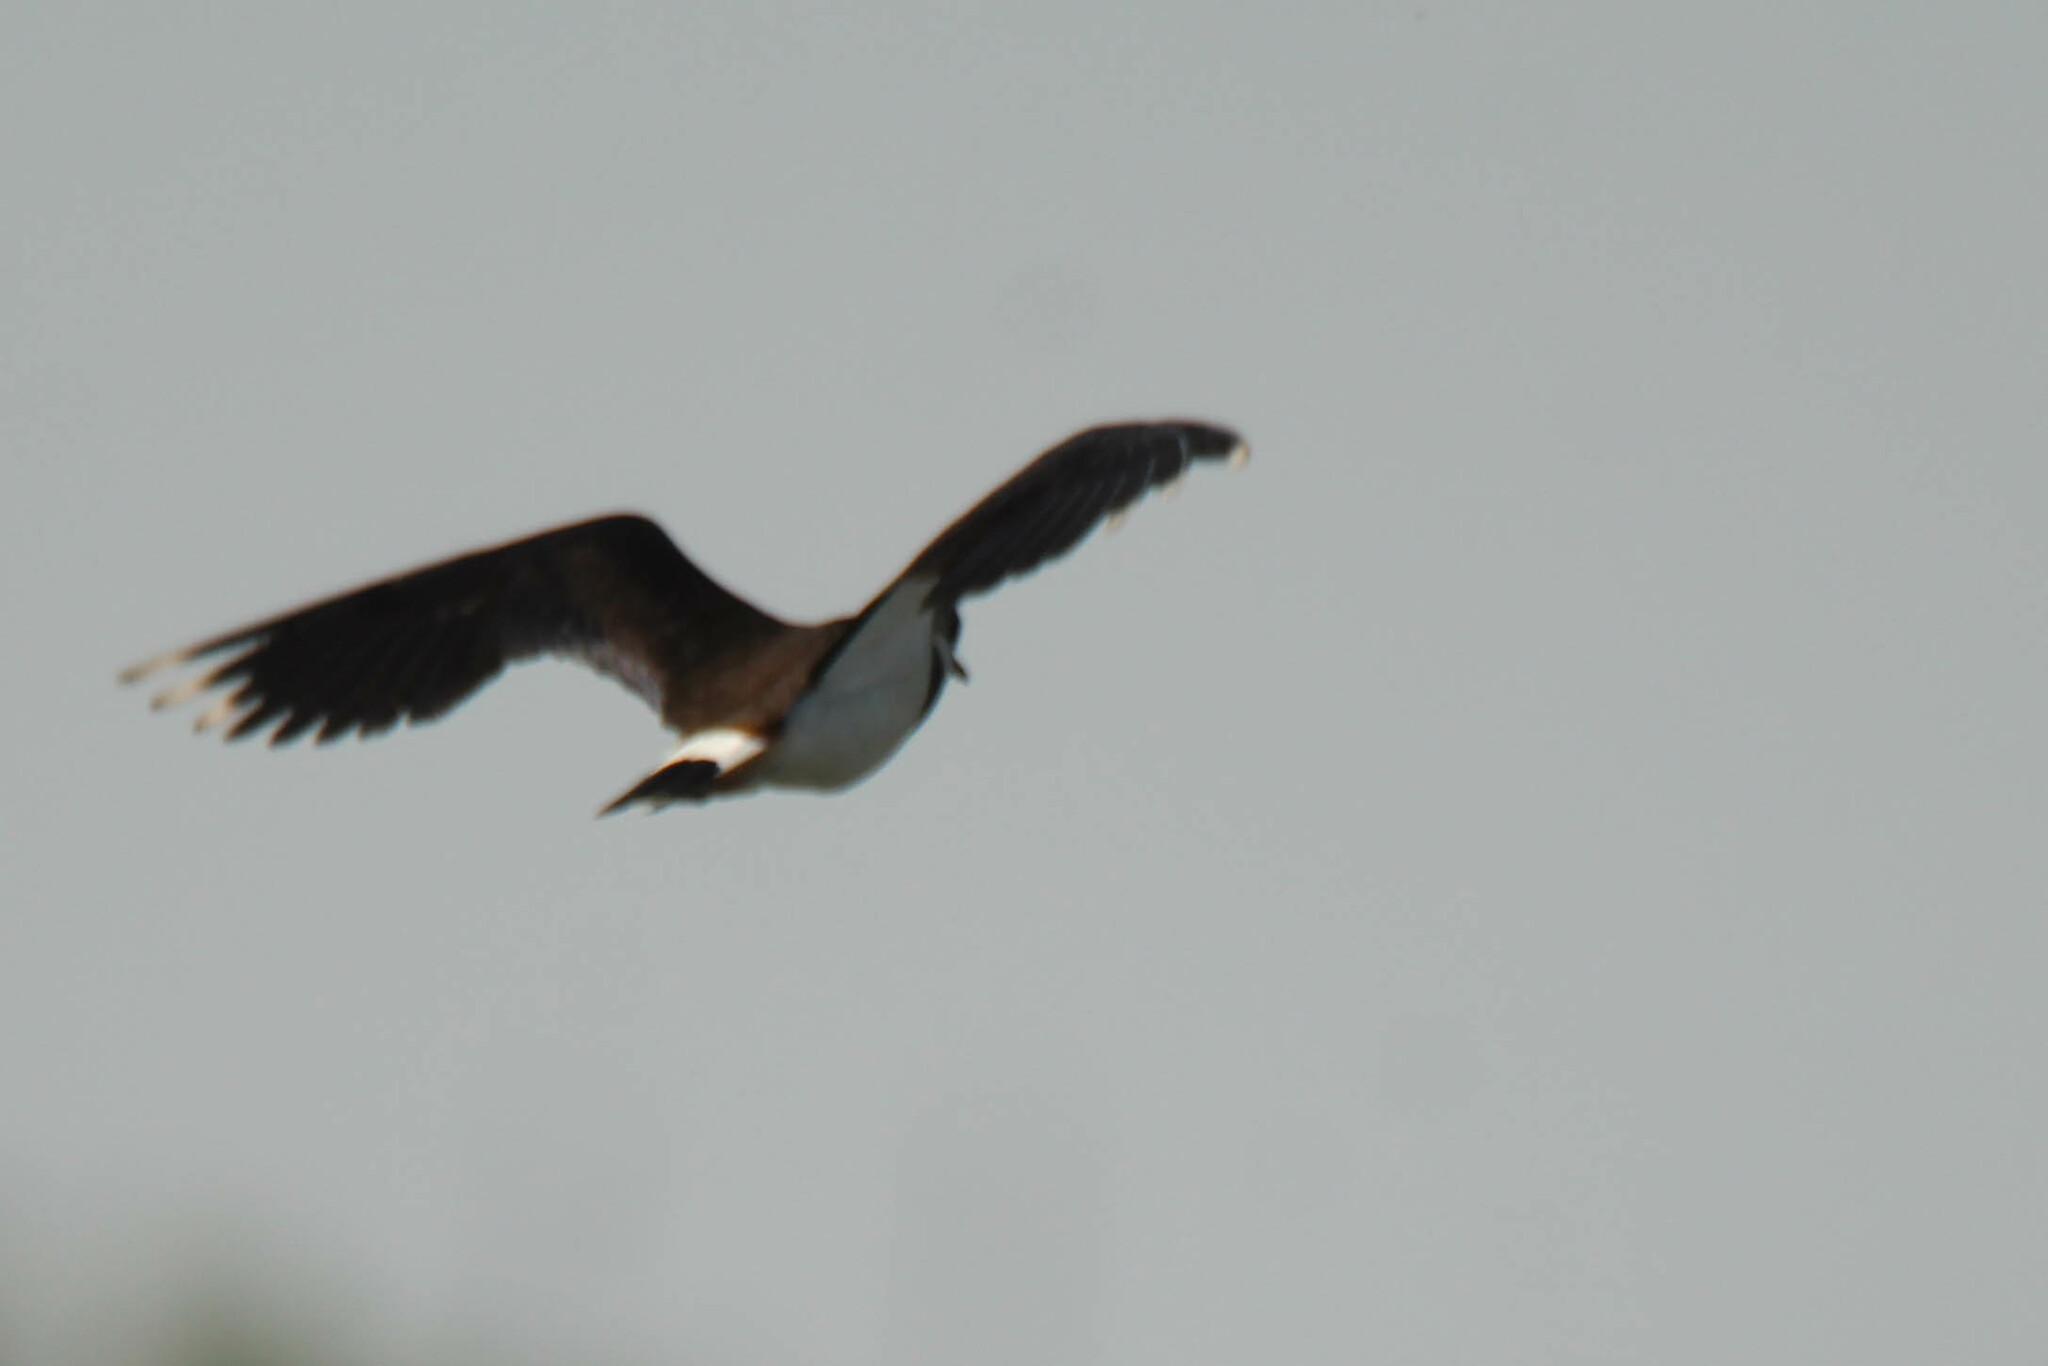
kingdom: Animalia
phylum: Chordata
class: Aves
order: Charadriiformes
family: Charadriidae
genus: Vanellus
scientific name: Vanellus vanellus
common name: Northern lapwing
